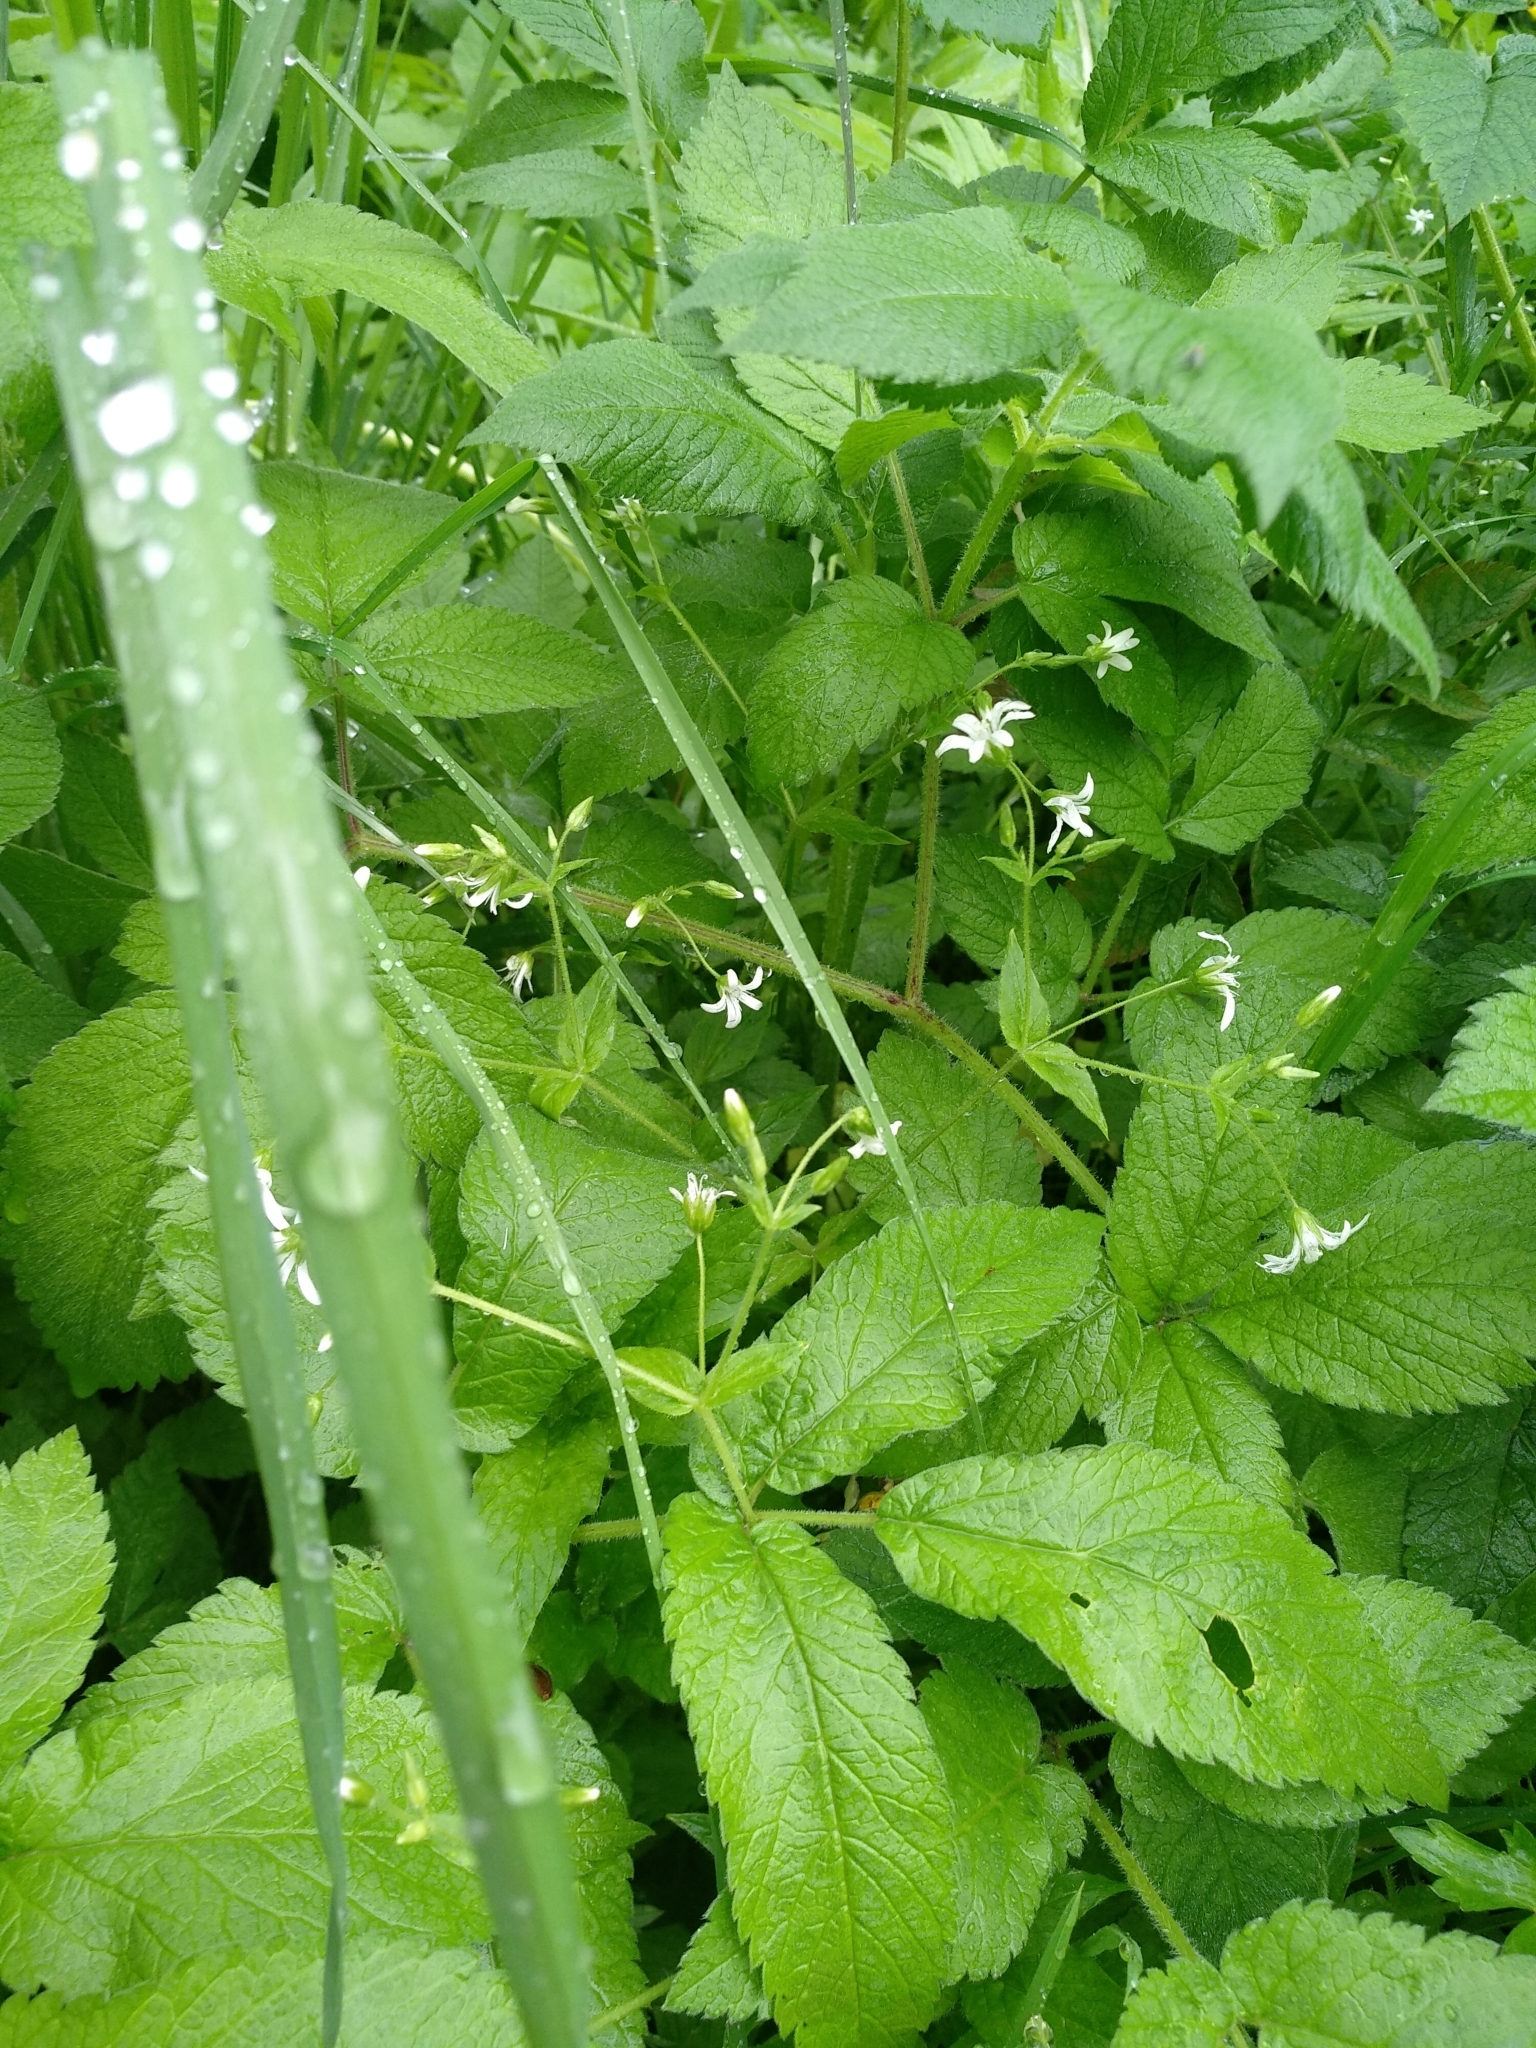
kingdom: Plantae
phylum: Tracheophyta
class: Magnoliopsida
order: Caryophyllales
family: Caryophyllaceae
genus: Stellaria
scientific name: Stellaria nemorum
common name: Wood stitchwort
